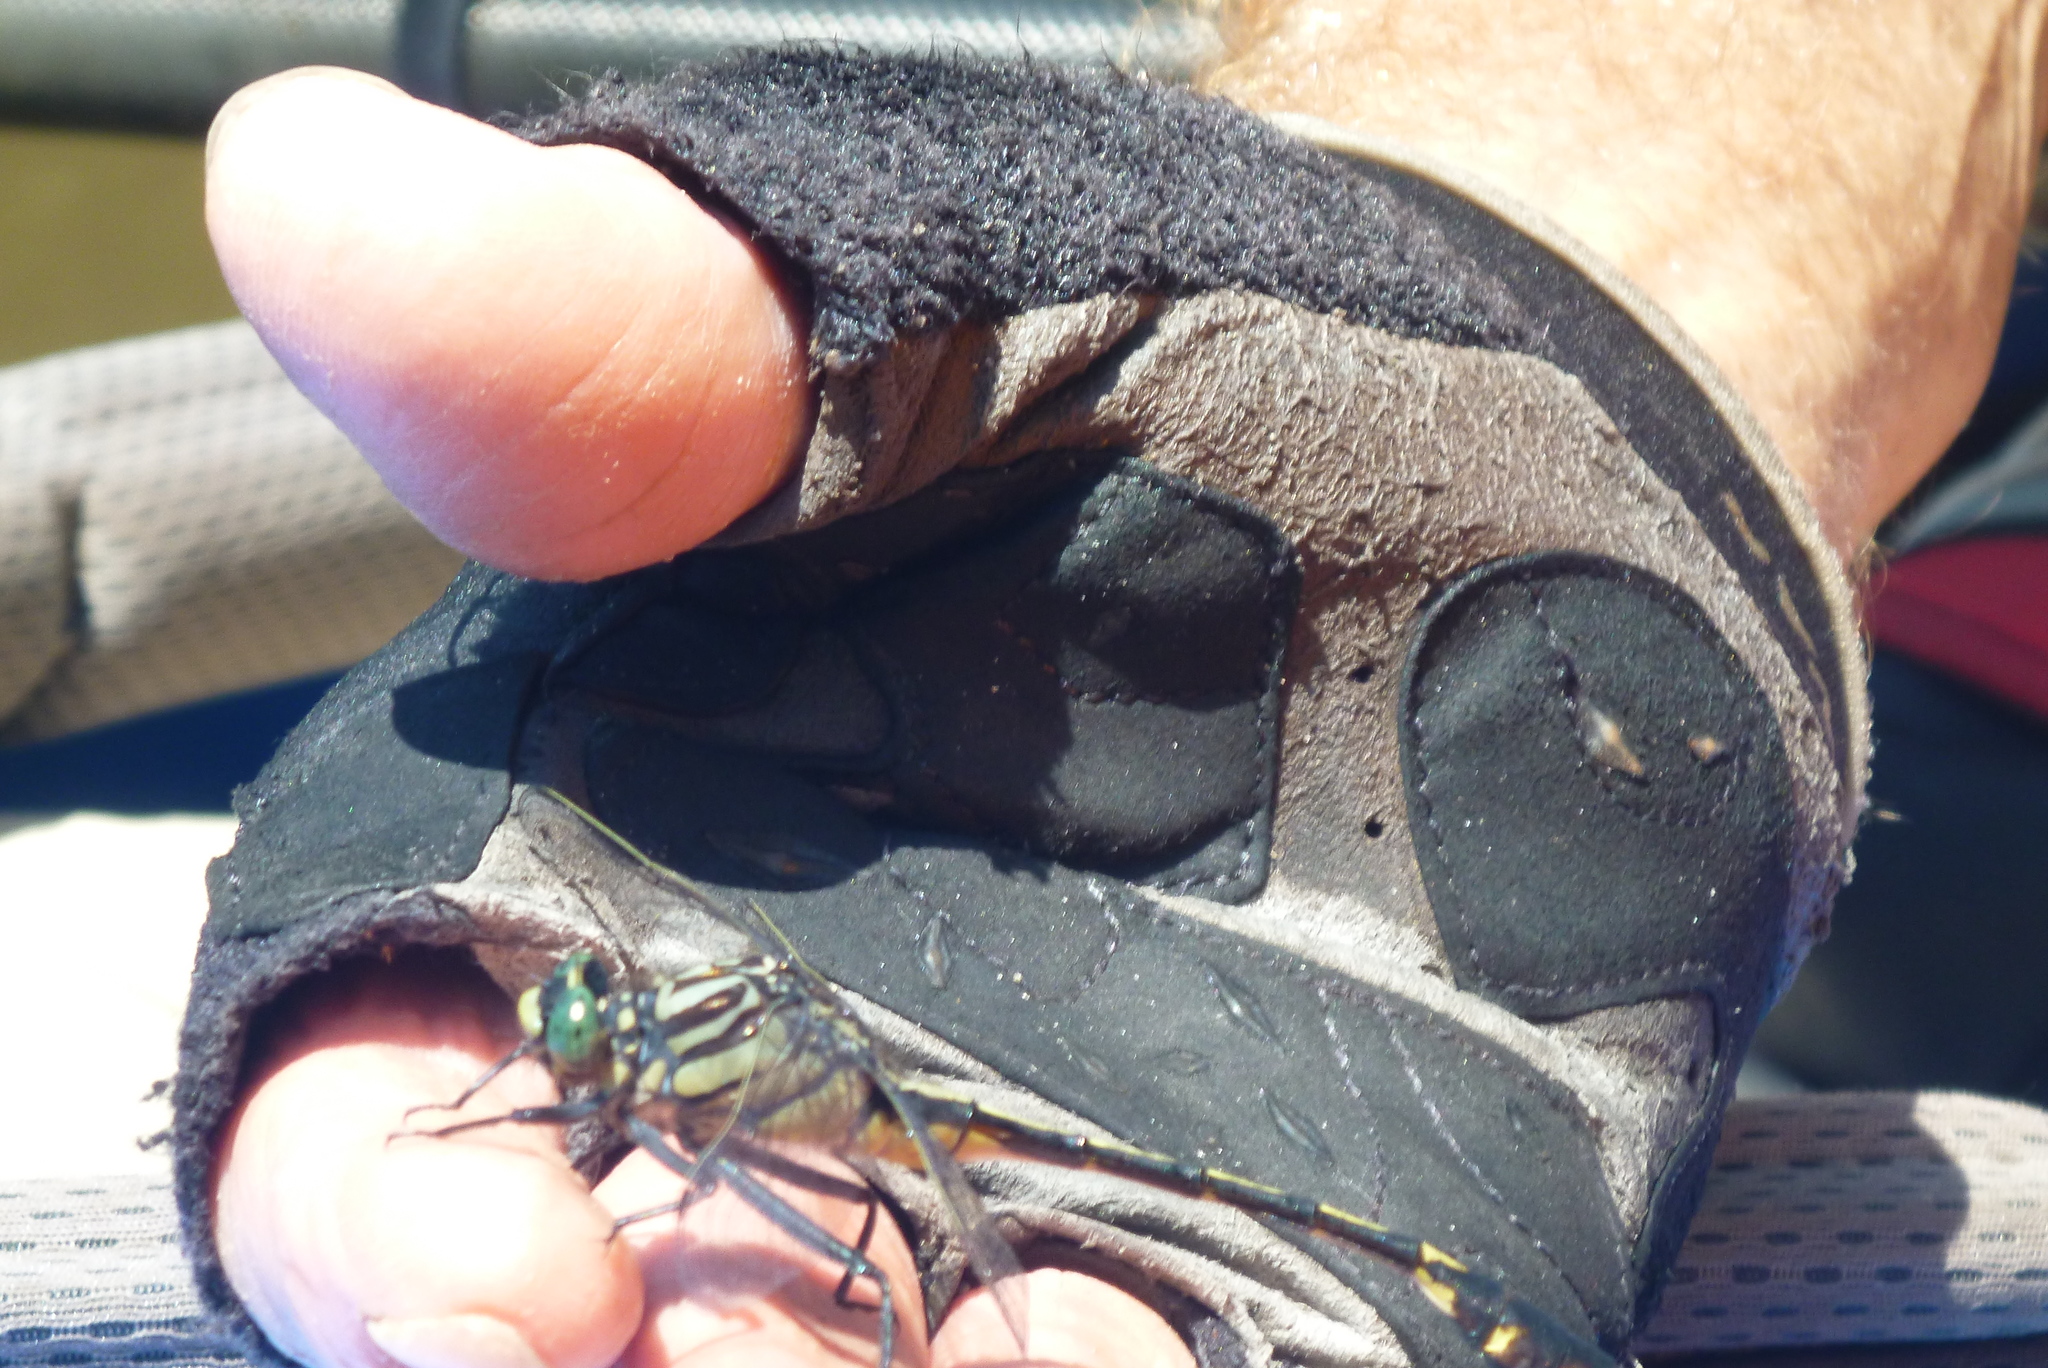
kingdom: Animalia
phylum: Arthropoda
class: Insecta
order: Odonata
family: Gomphidae
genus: Gomphurus
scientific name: Gomphurus dilatatus
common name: Blackwater clubtail
